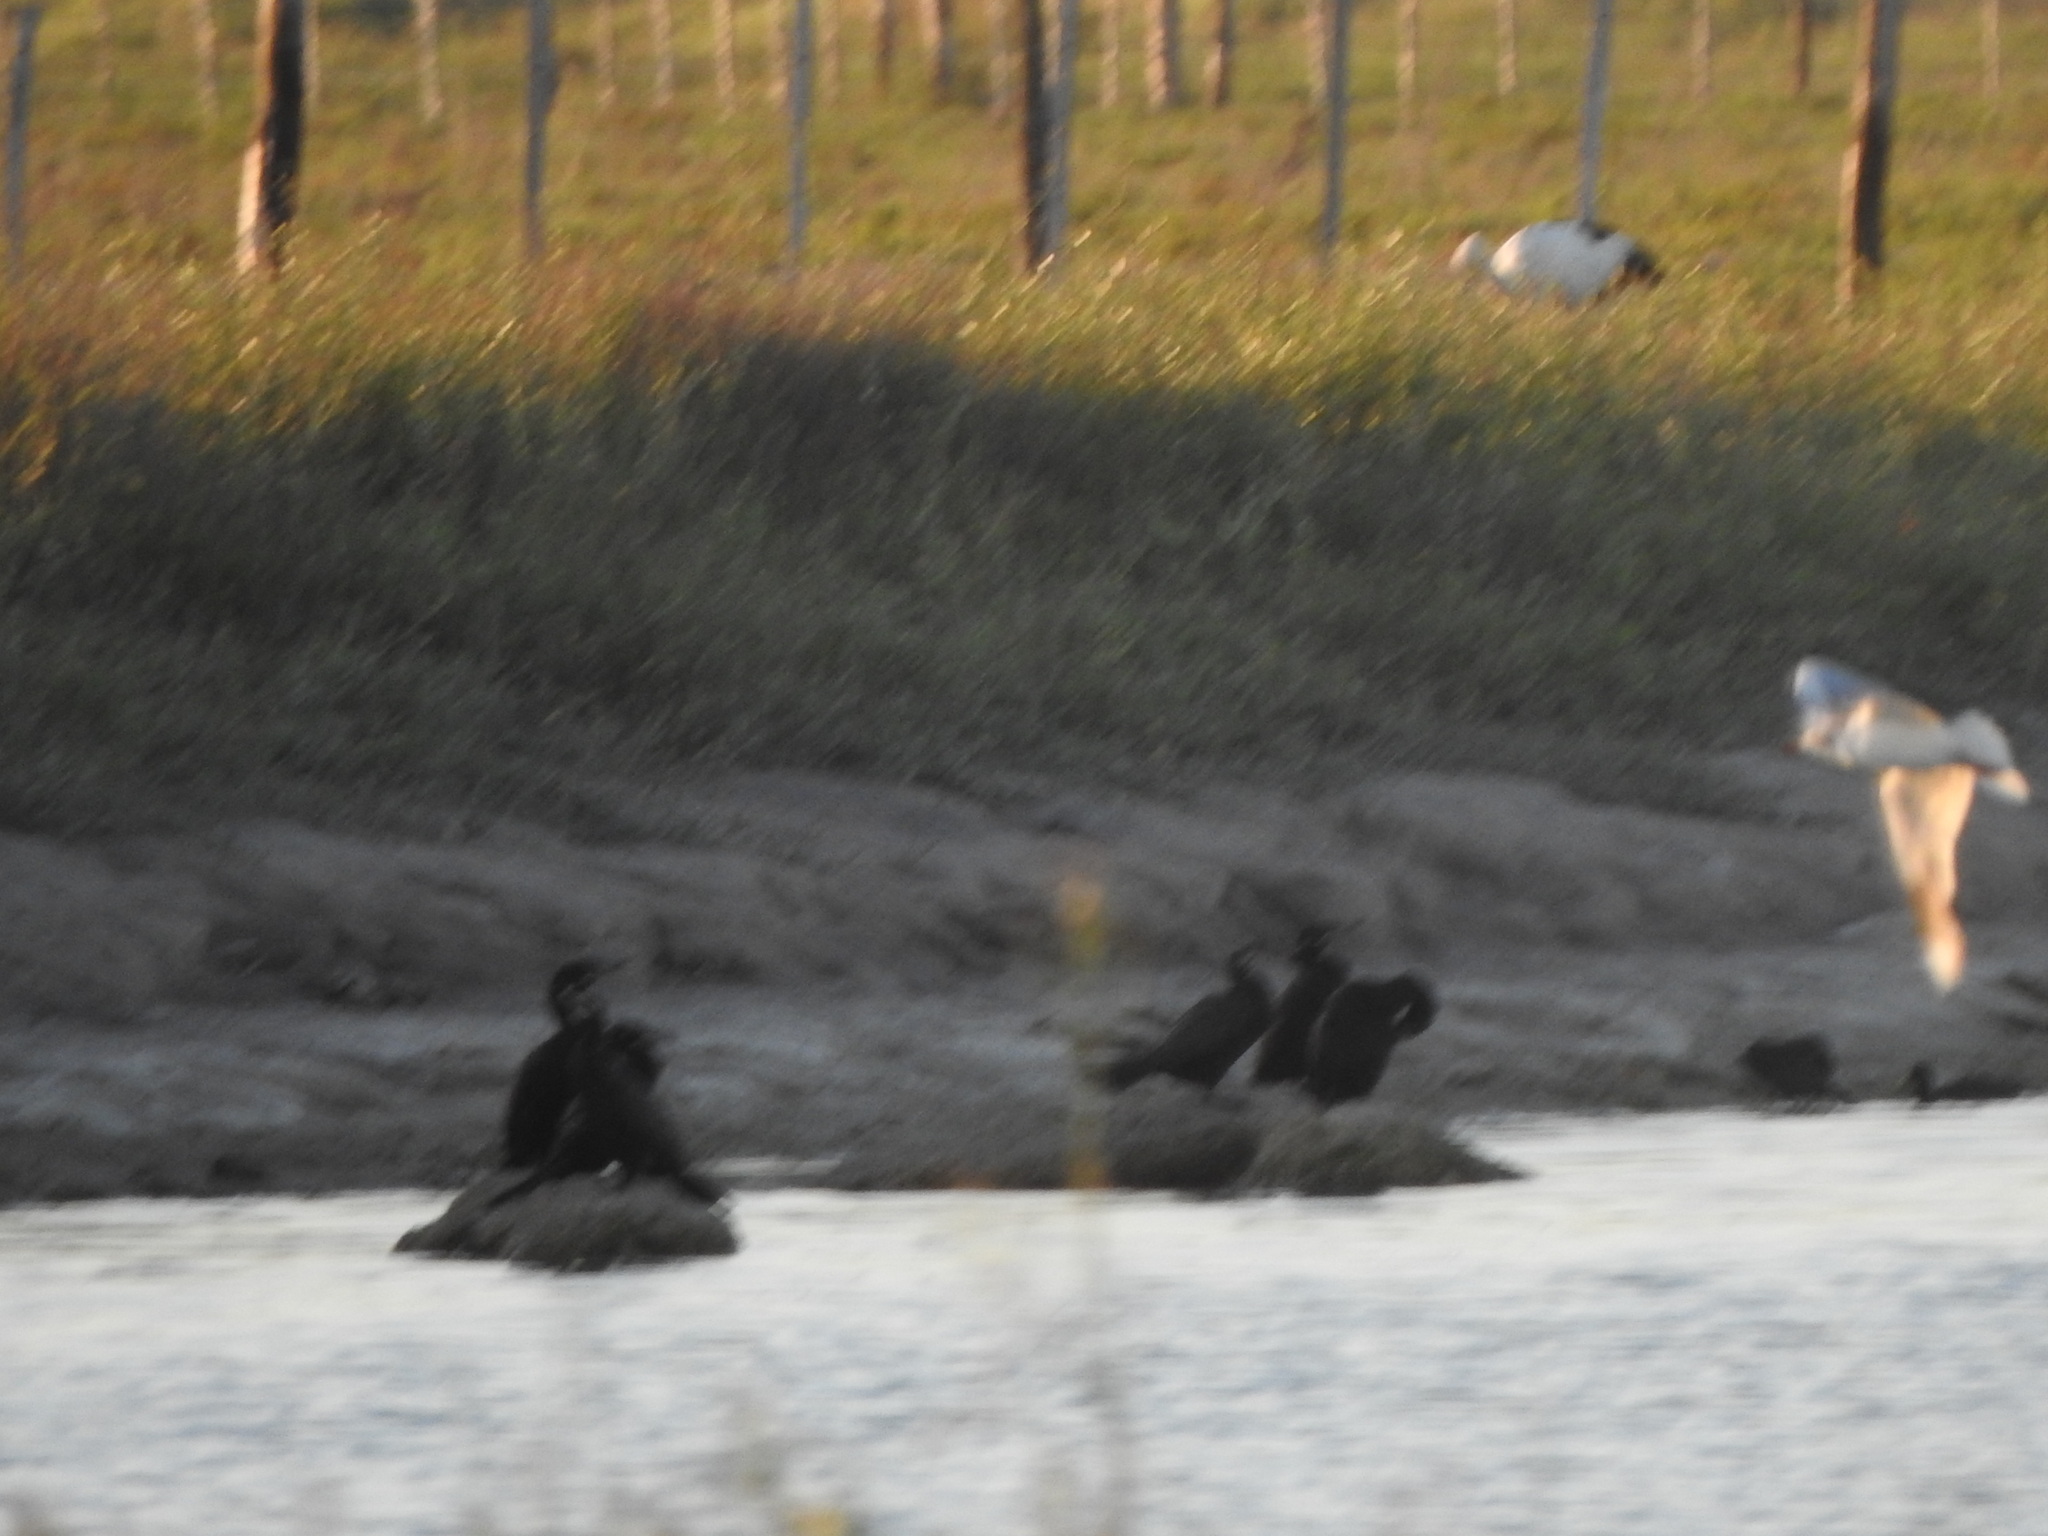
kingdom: Animalia
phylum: Chordata
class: Aves
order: Suliformes
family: Phalacrocoracidae
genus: Phalacrocorax
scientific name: Phalacrocorax brasilianus
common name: Neotropic cormorant
